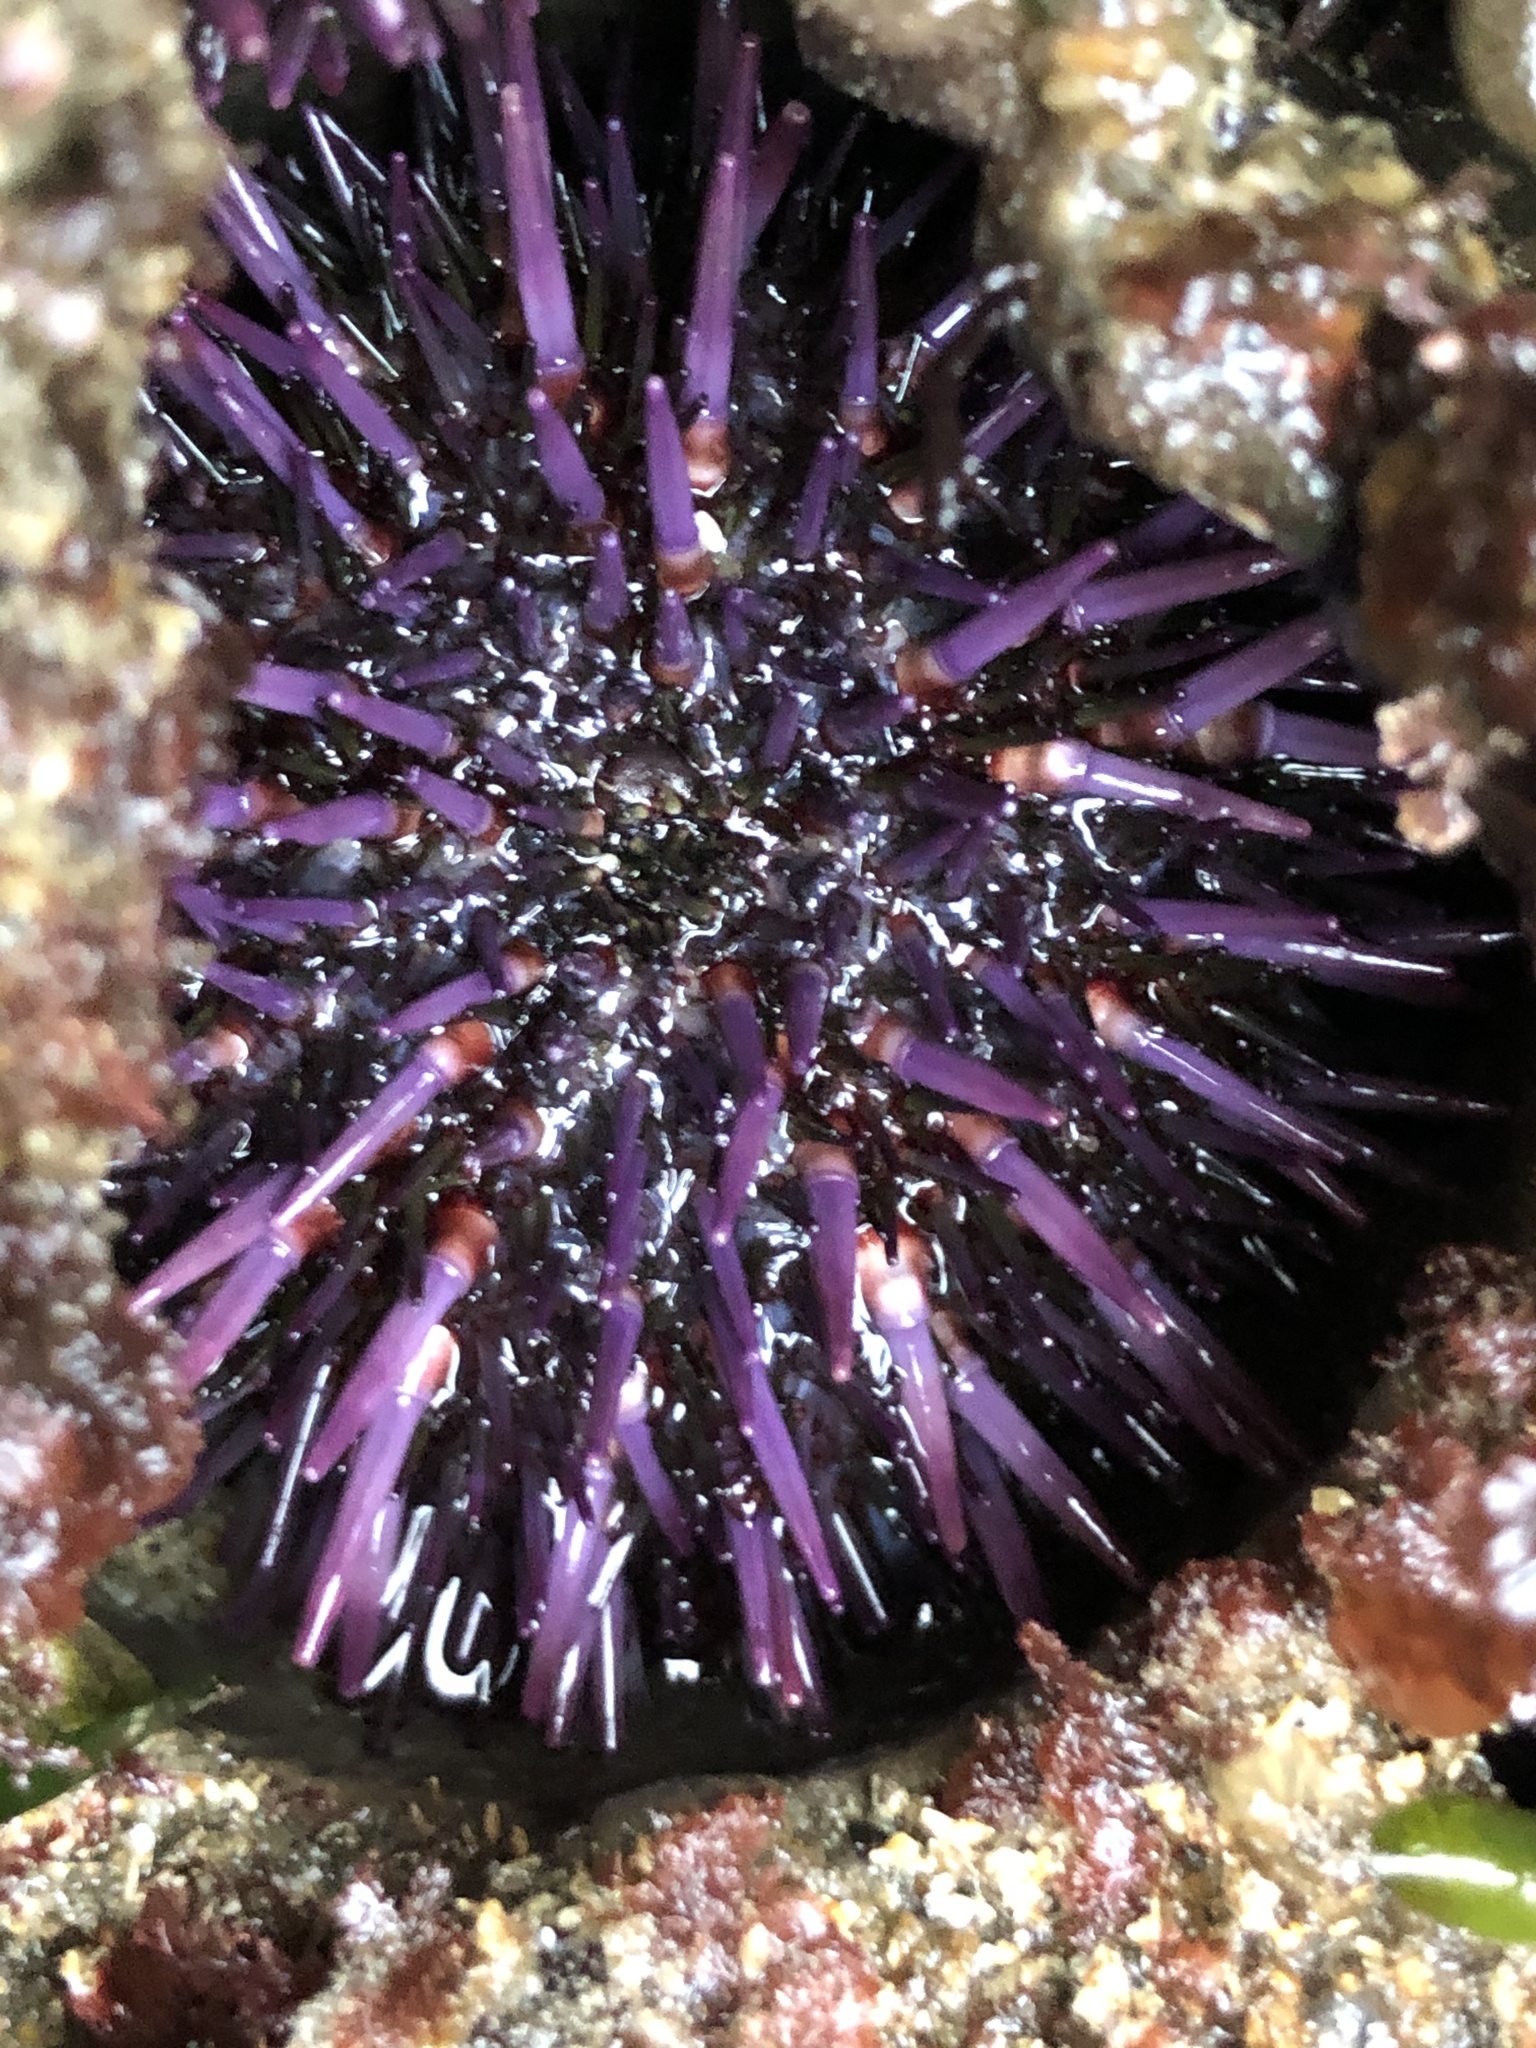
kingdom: Animalia
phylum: Echinodermata
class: Echinoidea
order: Camarodonta
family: Strongylocentrotidae
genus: Strongylocentrotus
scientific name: Strongylocentrotus purpuratus
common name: Purple sea urchin
